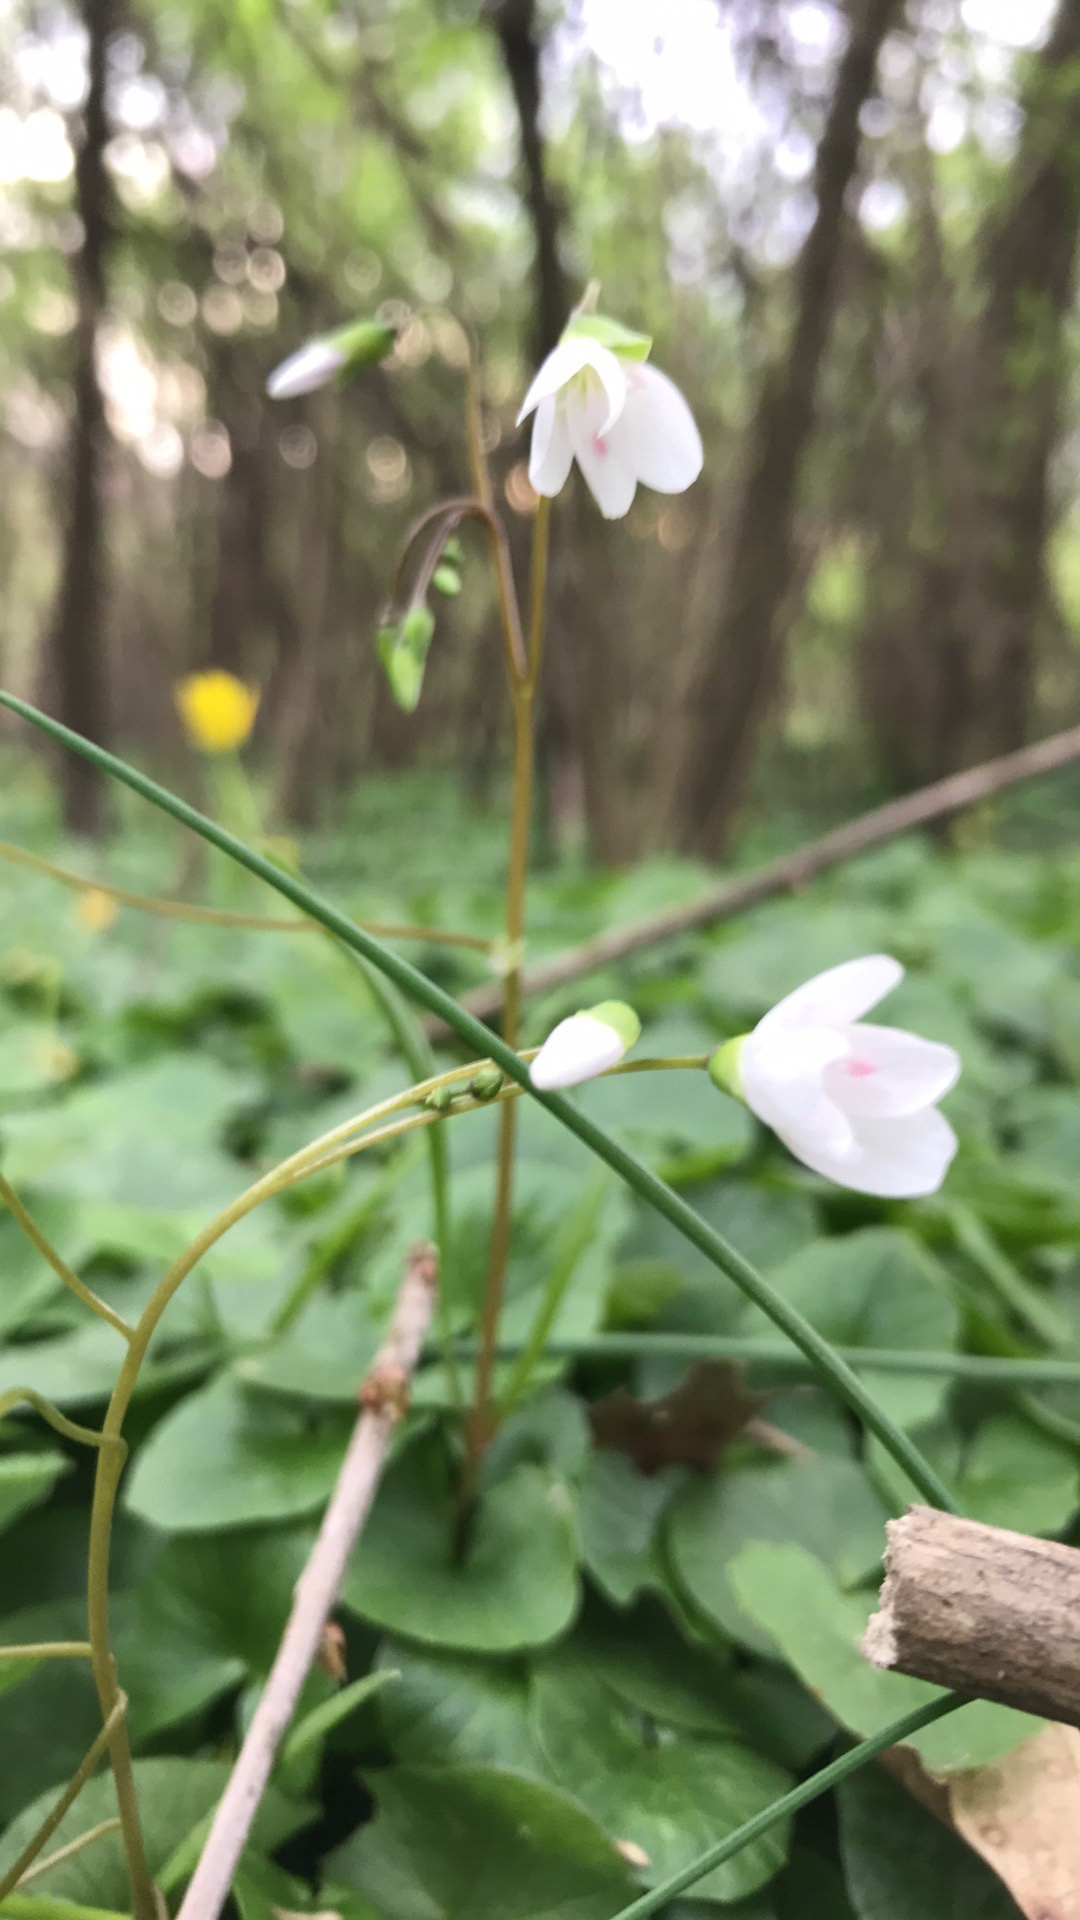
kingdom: Plantae
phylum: Tracheophyta
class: Magnoliopsida
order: Caryophyllales
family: Montiaceae
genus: Claytonia
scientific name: Claytonia virginica
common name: Virginia springbeauty
